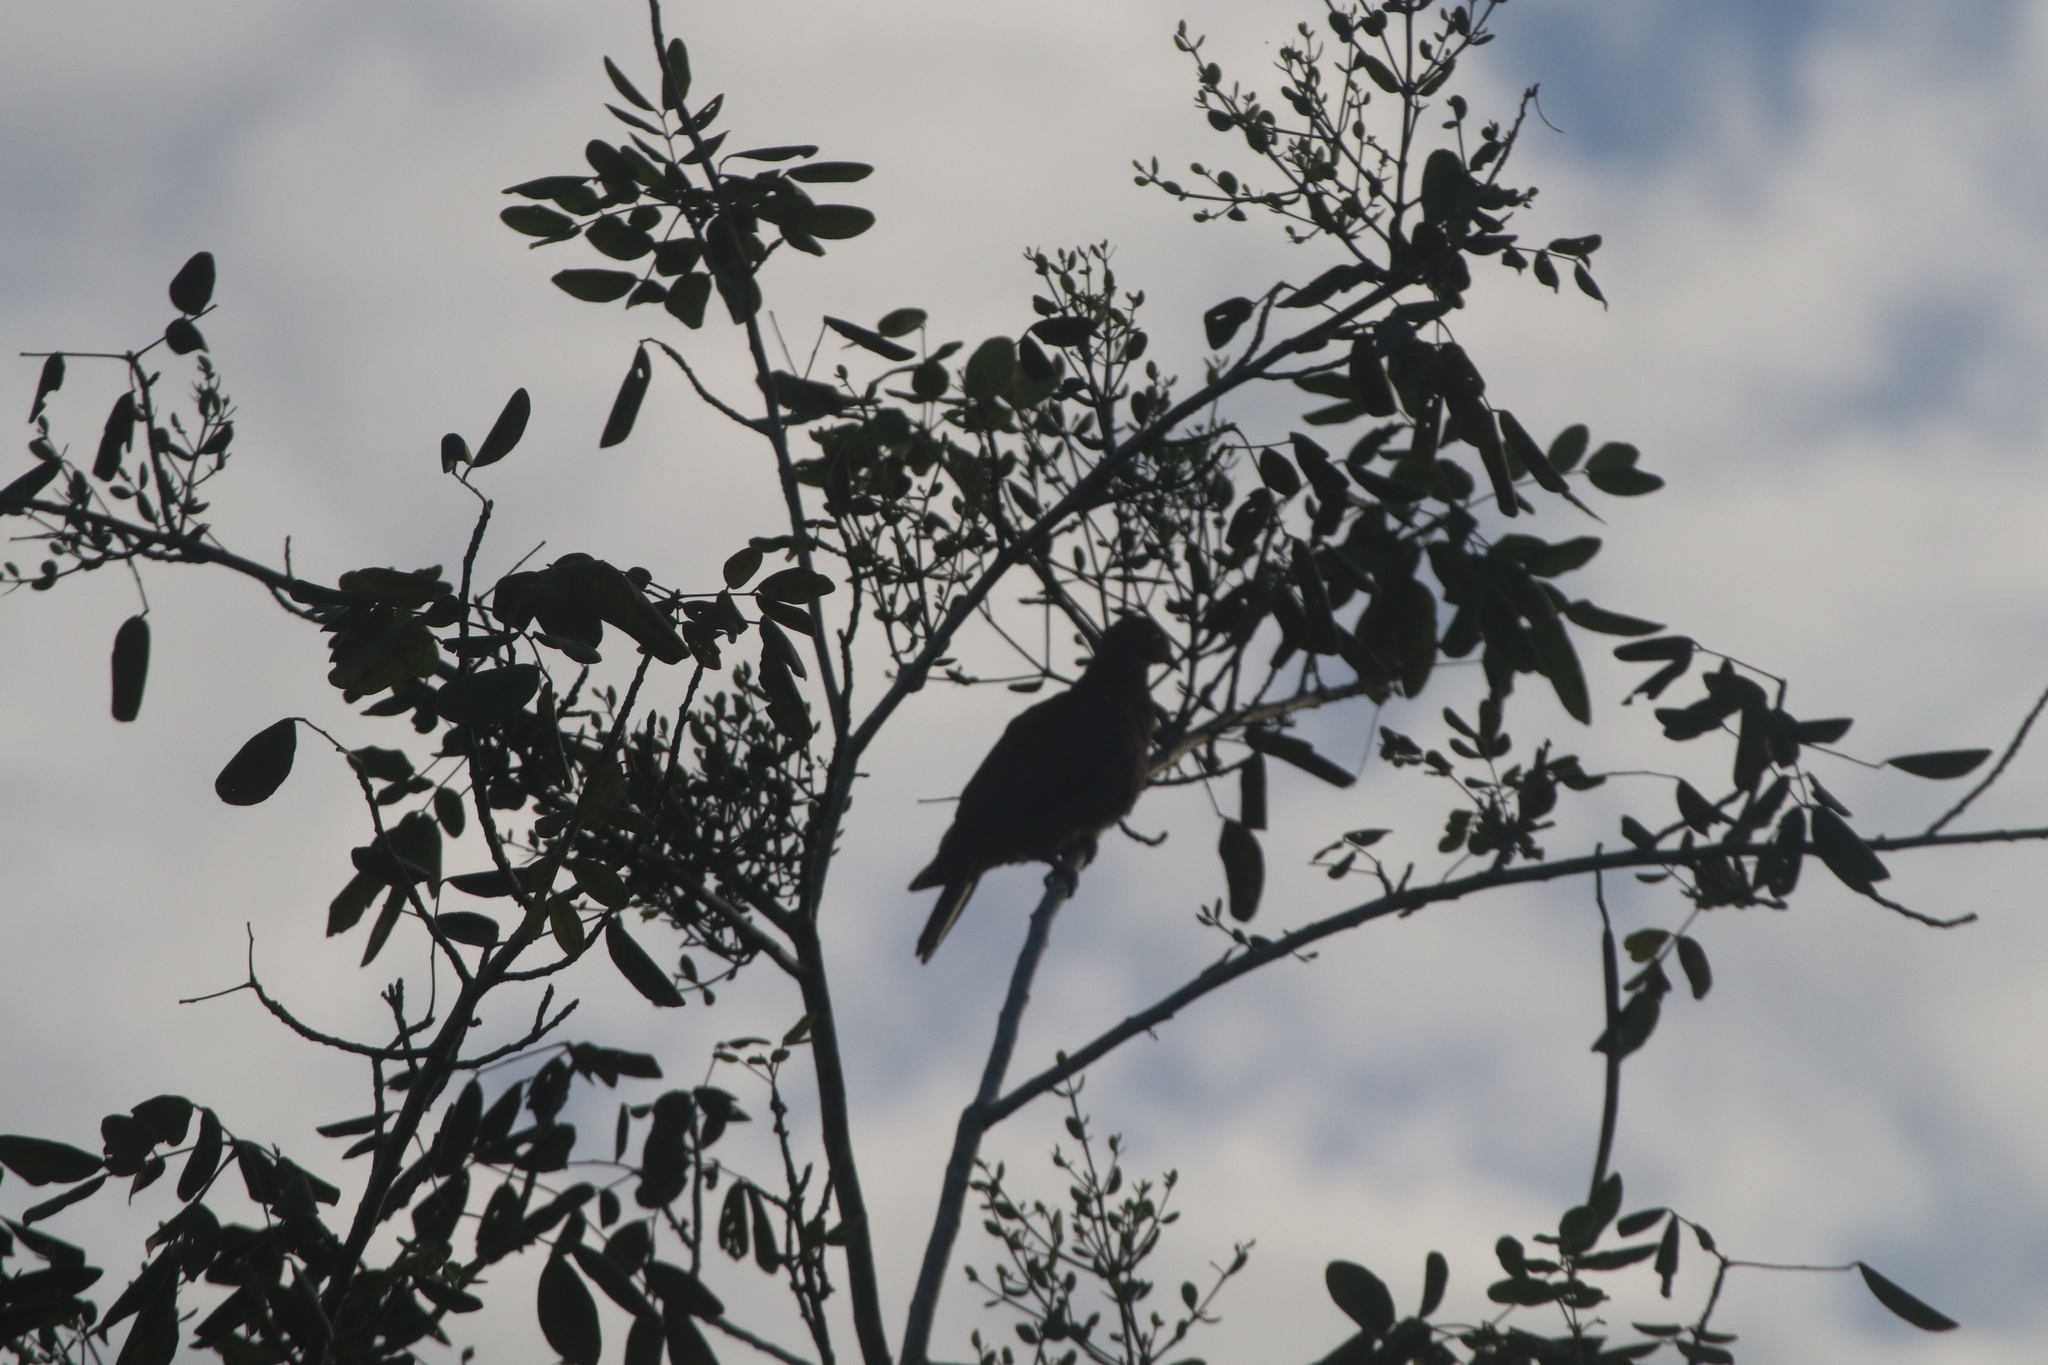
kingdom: Animalia
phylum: Chordata
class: Aves
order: Columbiformes
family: Columbidae
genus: Patagioenas
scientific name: Patagioenas flavirostris
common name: Red-billed pigeon
